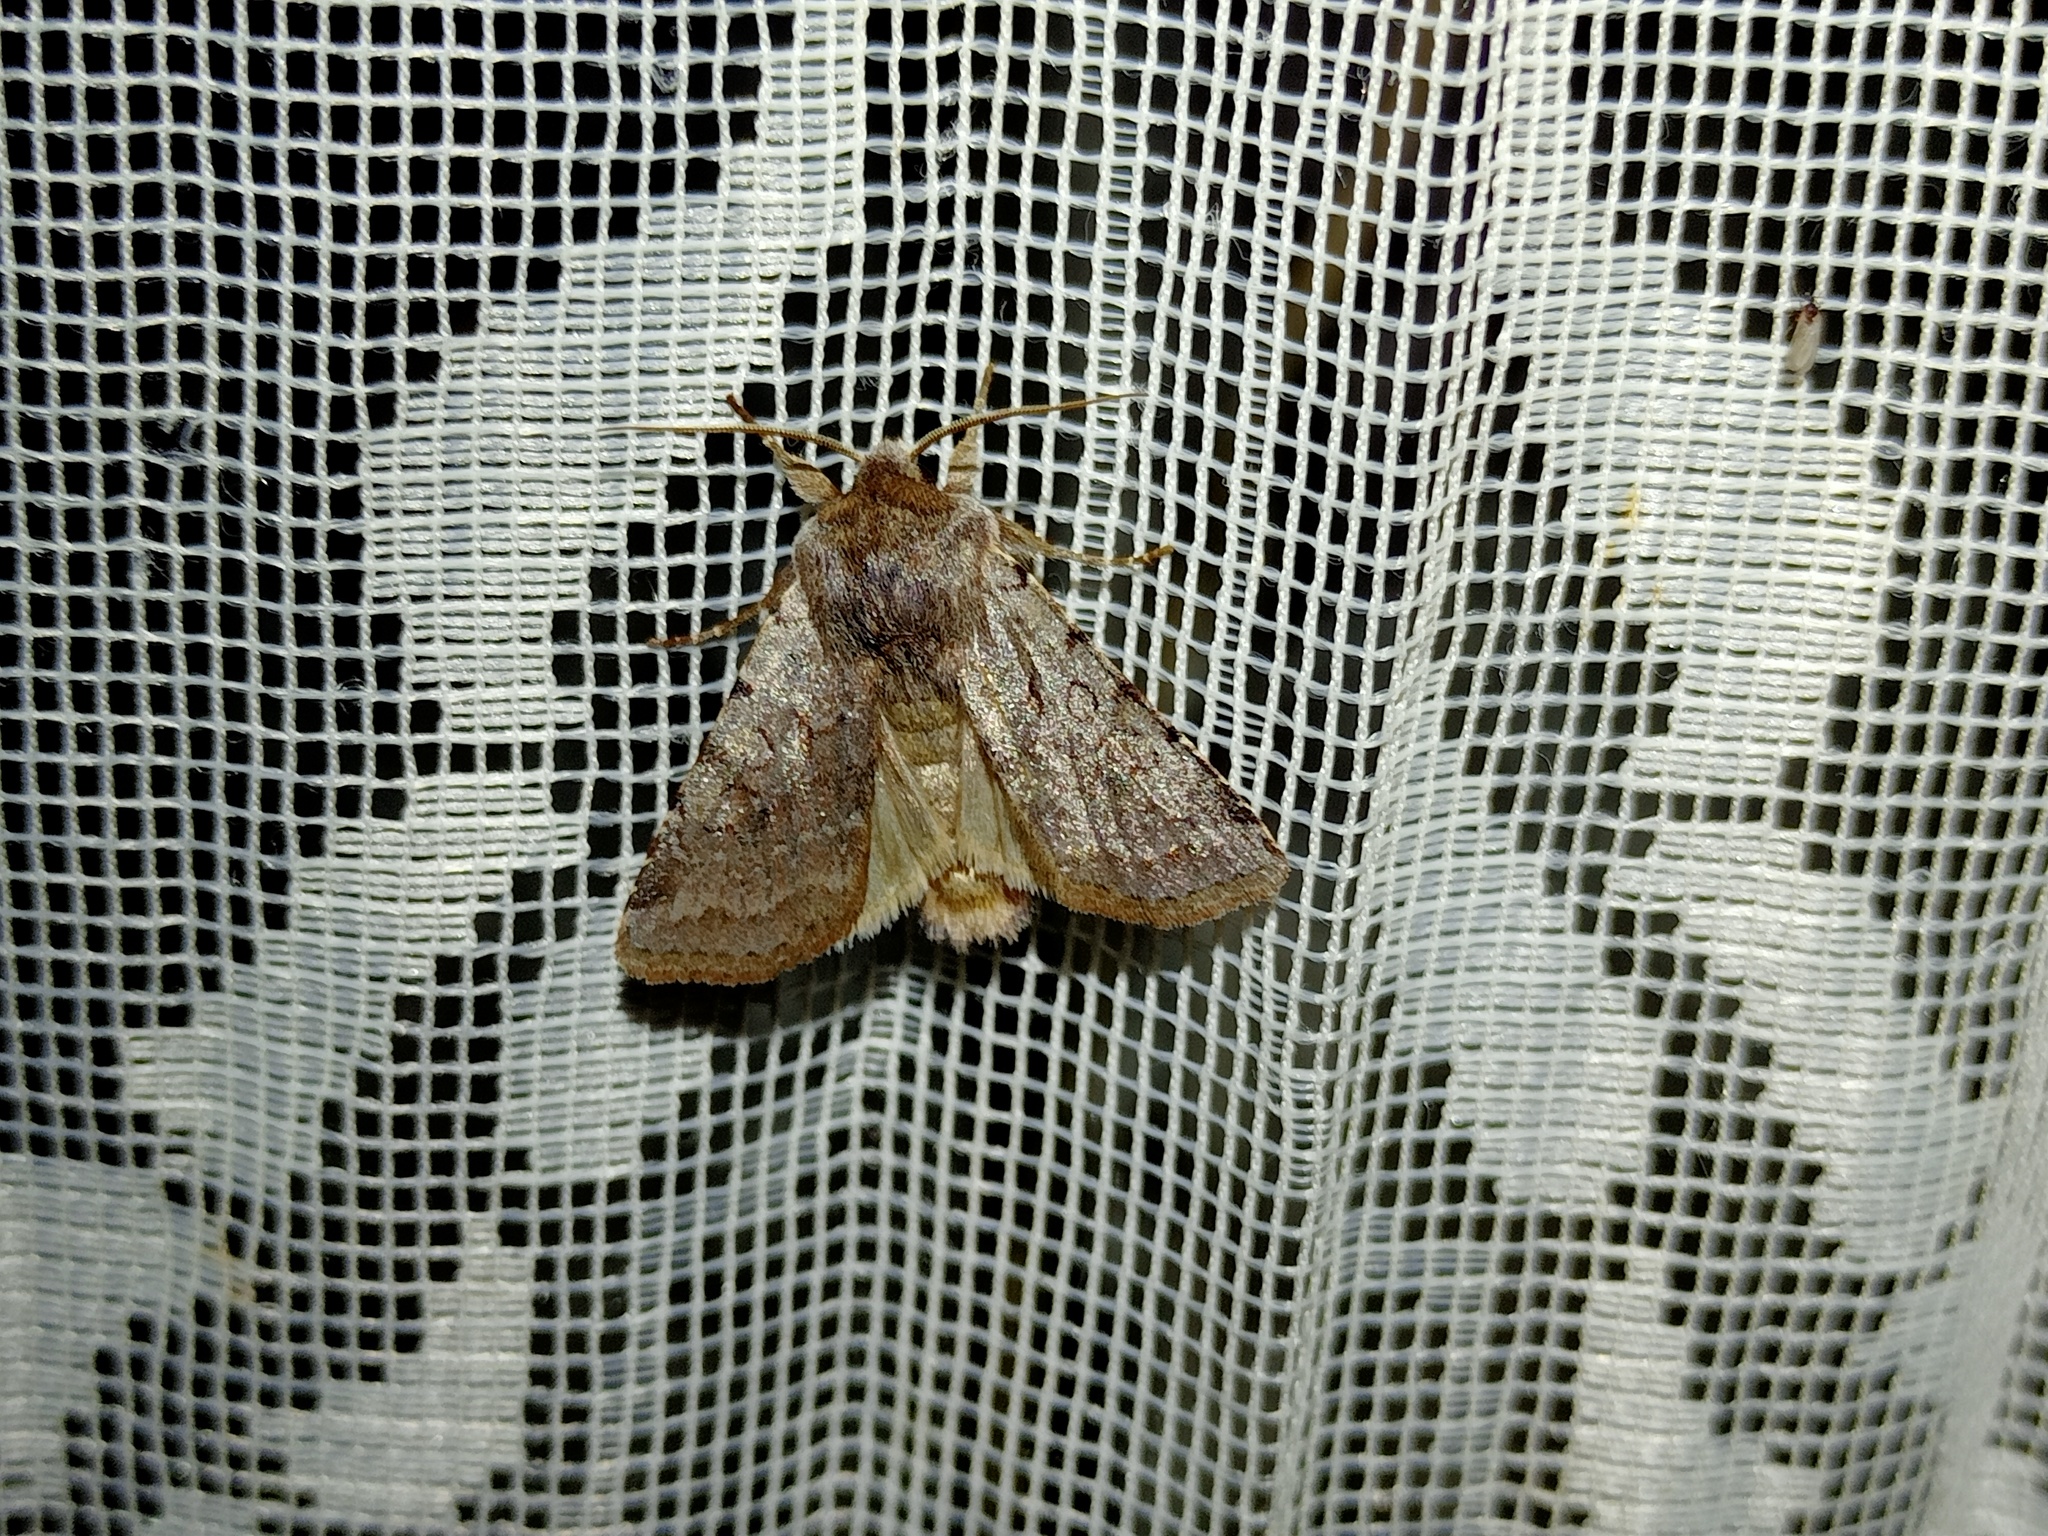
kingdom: Animalia
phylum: Arthropoda
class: Insecta
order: Lepidoptera
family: Noctuidae
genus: Cerastis
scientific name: Cerastis rubricosa
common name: Red chestnut
